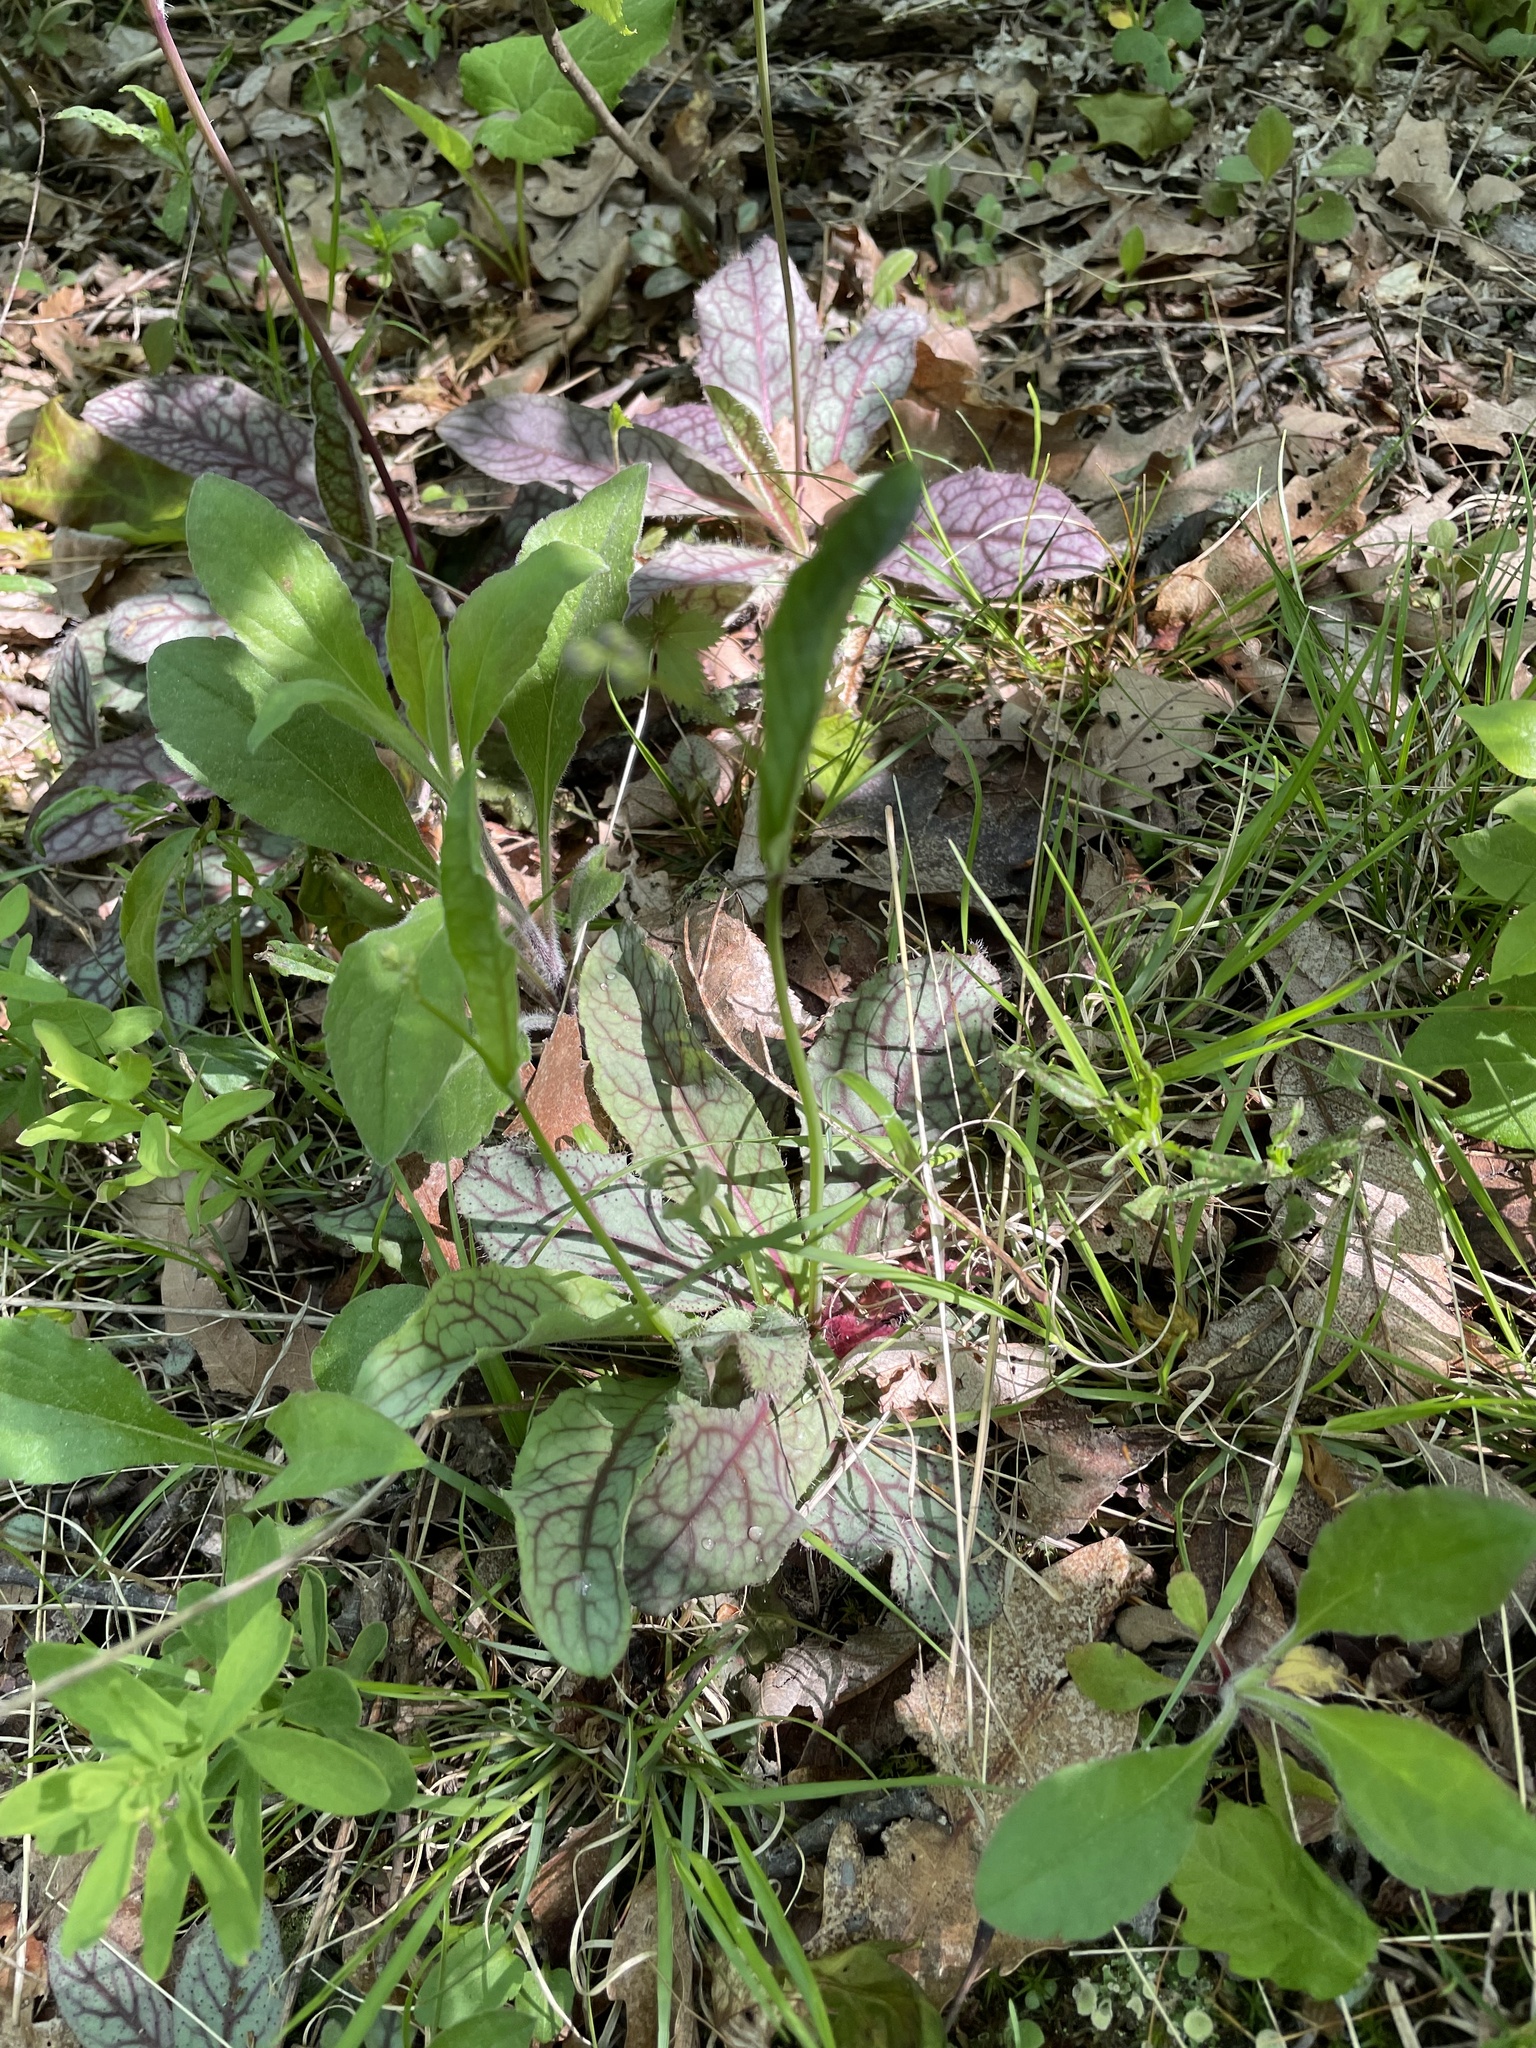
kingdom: Plantae
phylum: Tracheophyta
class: Magnoliopsida
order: Asterales
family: Asteraceae
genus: Hieracium
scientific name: Hieracium venosum
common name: Rattlesnake hawkweed
